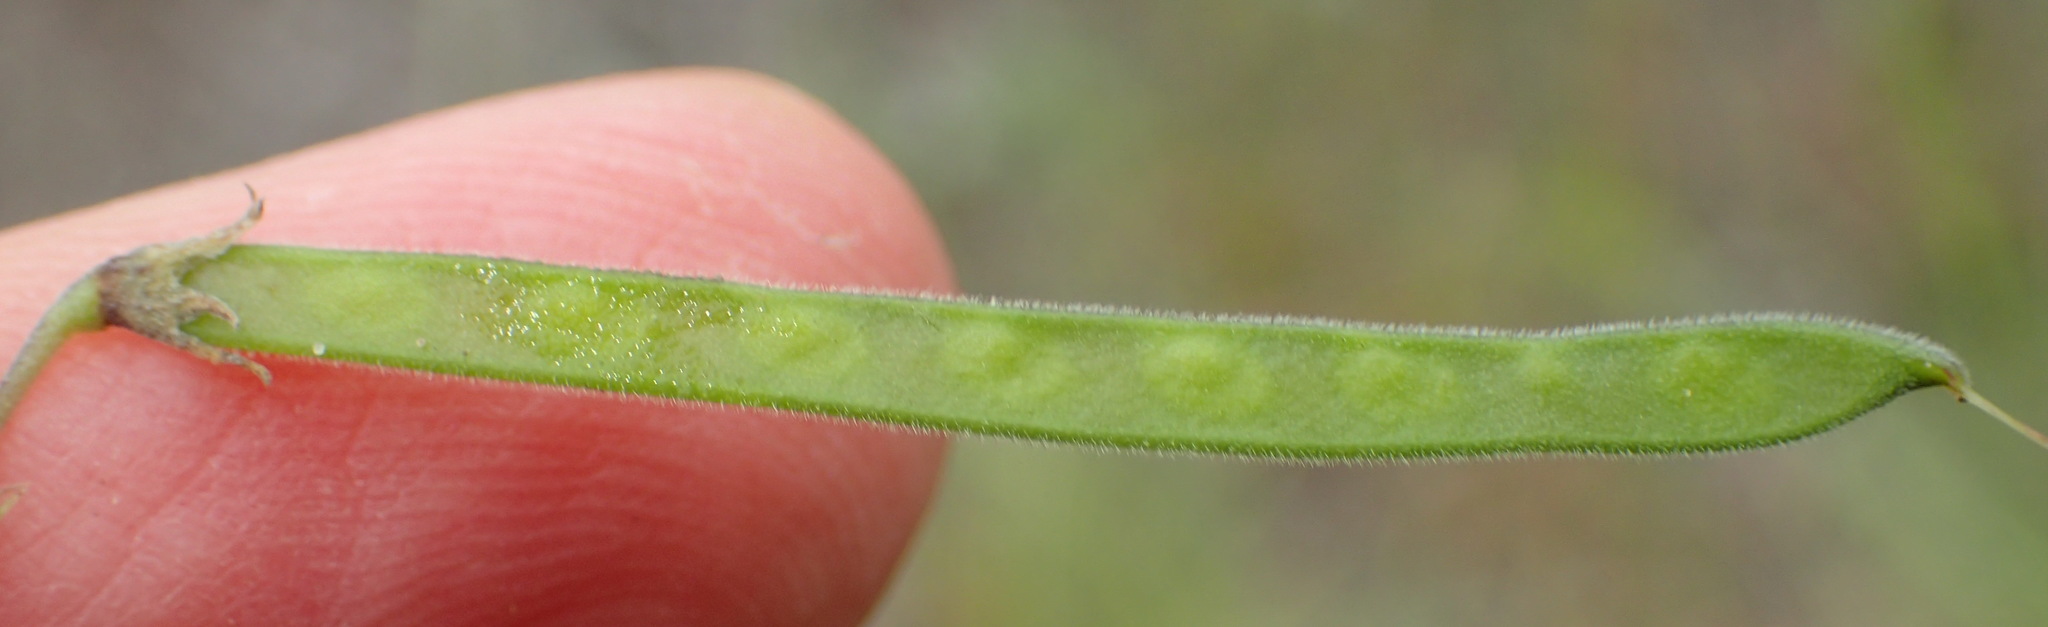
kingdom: Plantae
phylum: Tracheophyta
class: Magnoliopsida
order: Fabales
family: Fabaceae
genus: Tephrosia
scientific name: Tephrosia capensis
